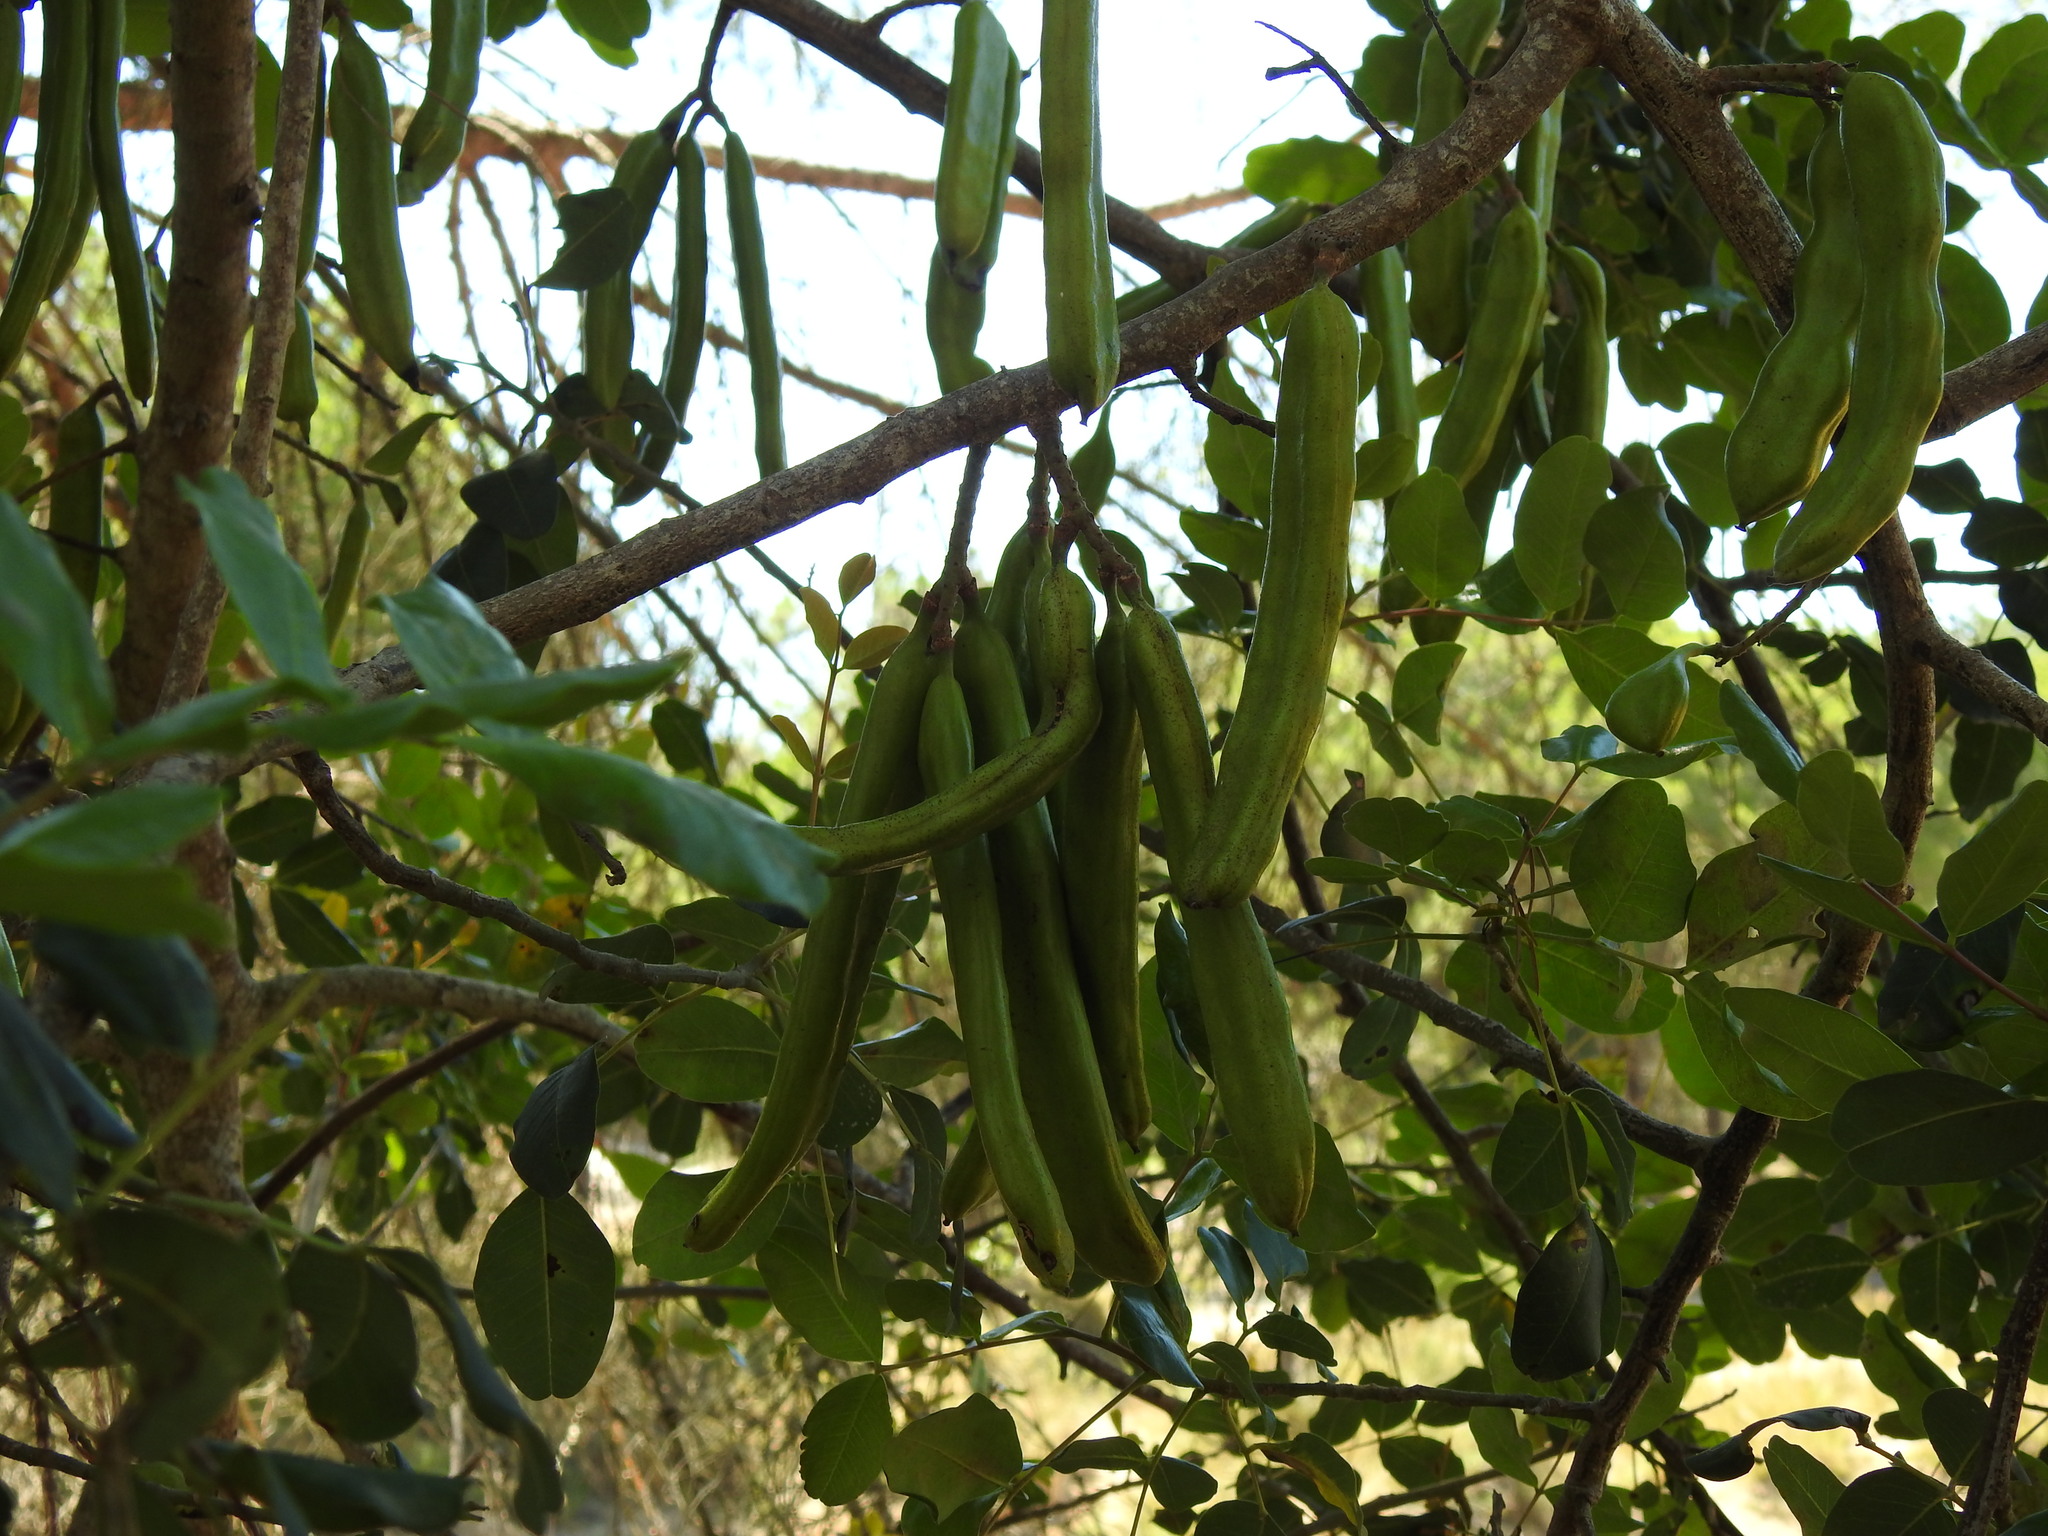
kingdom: Plantae
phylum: Tracheophyta
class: Magnoliopsida
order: Fabales
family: Fabaceae
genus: Ceratonia
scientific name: Ceratonia siliqua
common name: Carob
